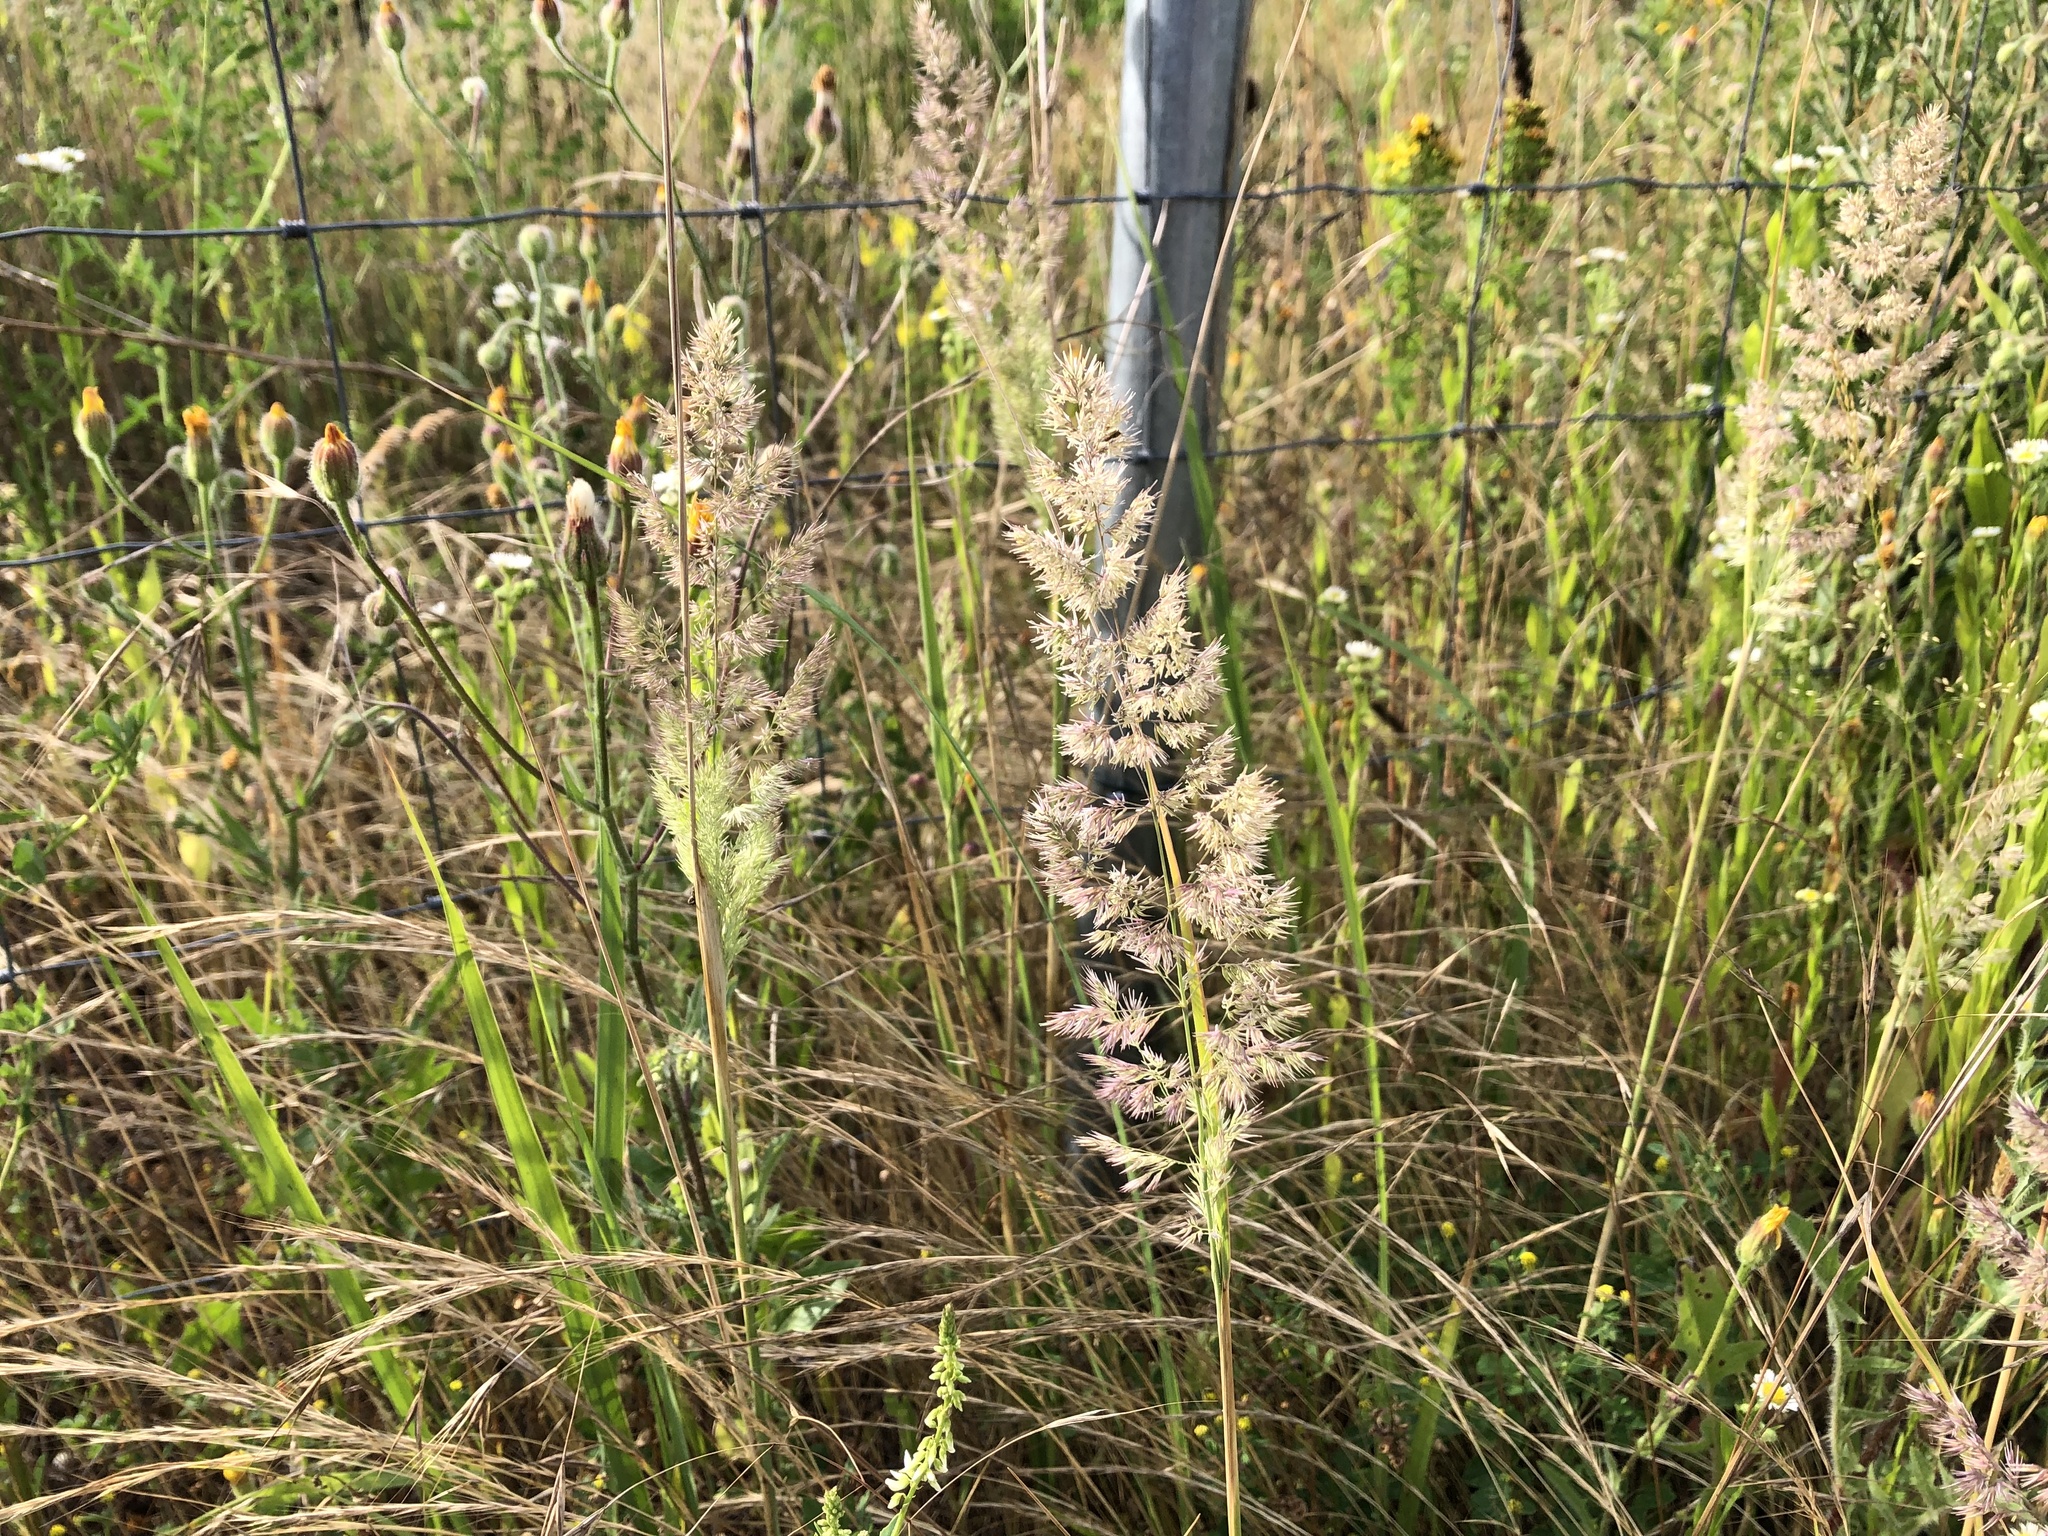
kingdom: Plantae
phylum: Tracheophyta
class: Liliopsida
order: Poales
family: Poaceae
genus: Calamagrostis
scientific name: Calamagrostis epigejos
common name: Wood small-reed
